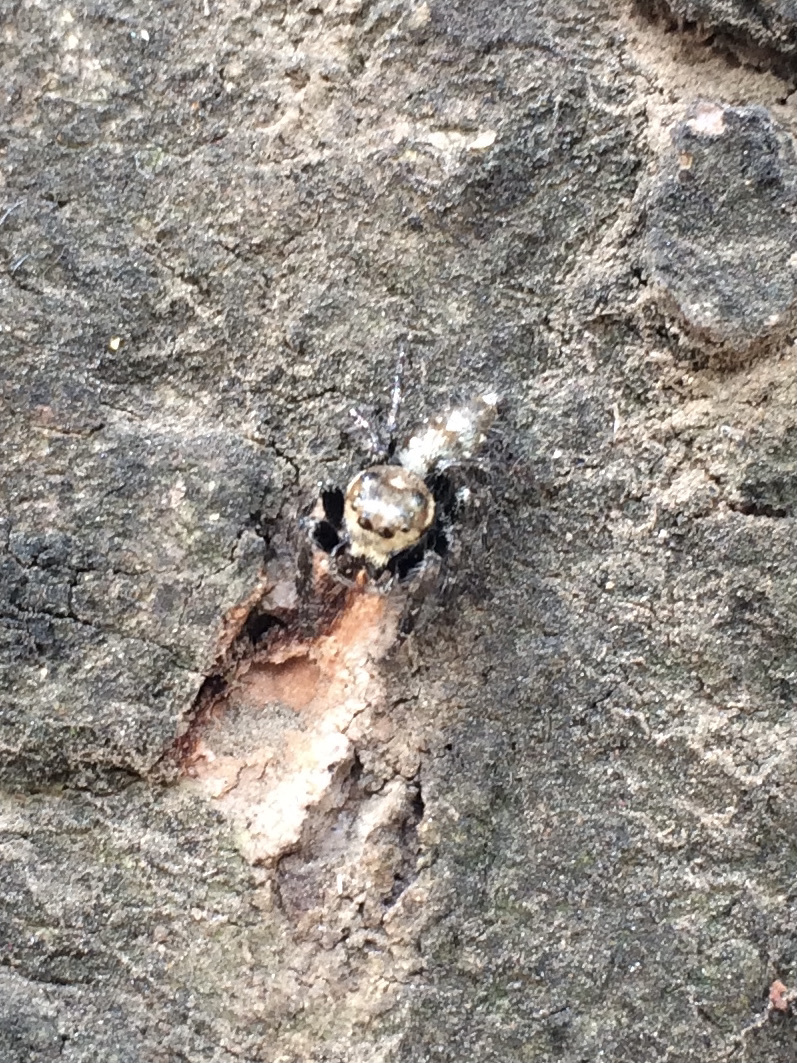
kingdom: Animalia
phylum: Arthropoda
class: Arachnida
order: Araneae
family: Salticidae
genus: Hyllus
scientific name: Hyllus semicupreus
